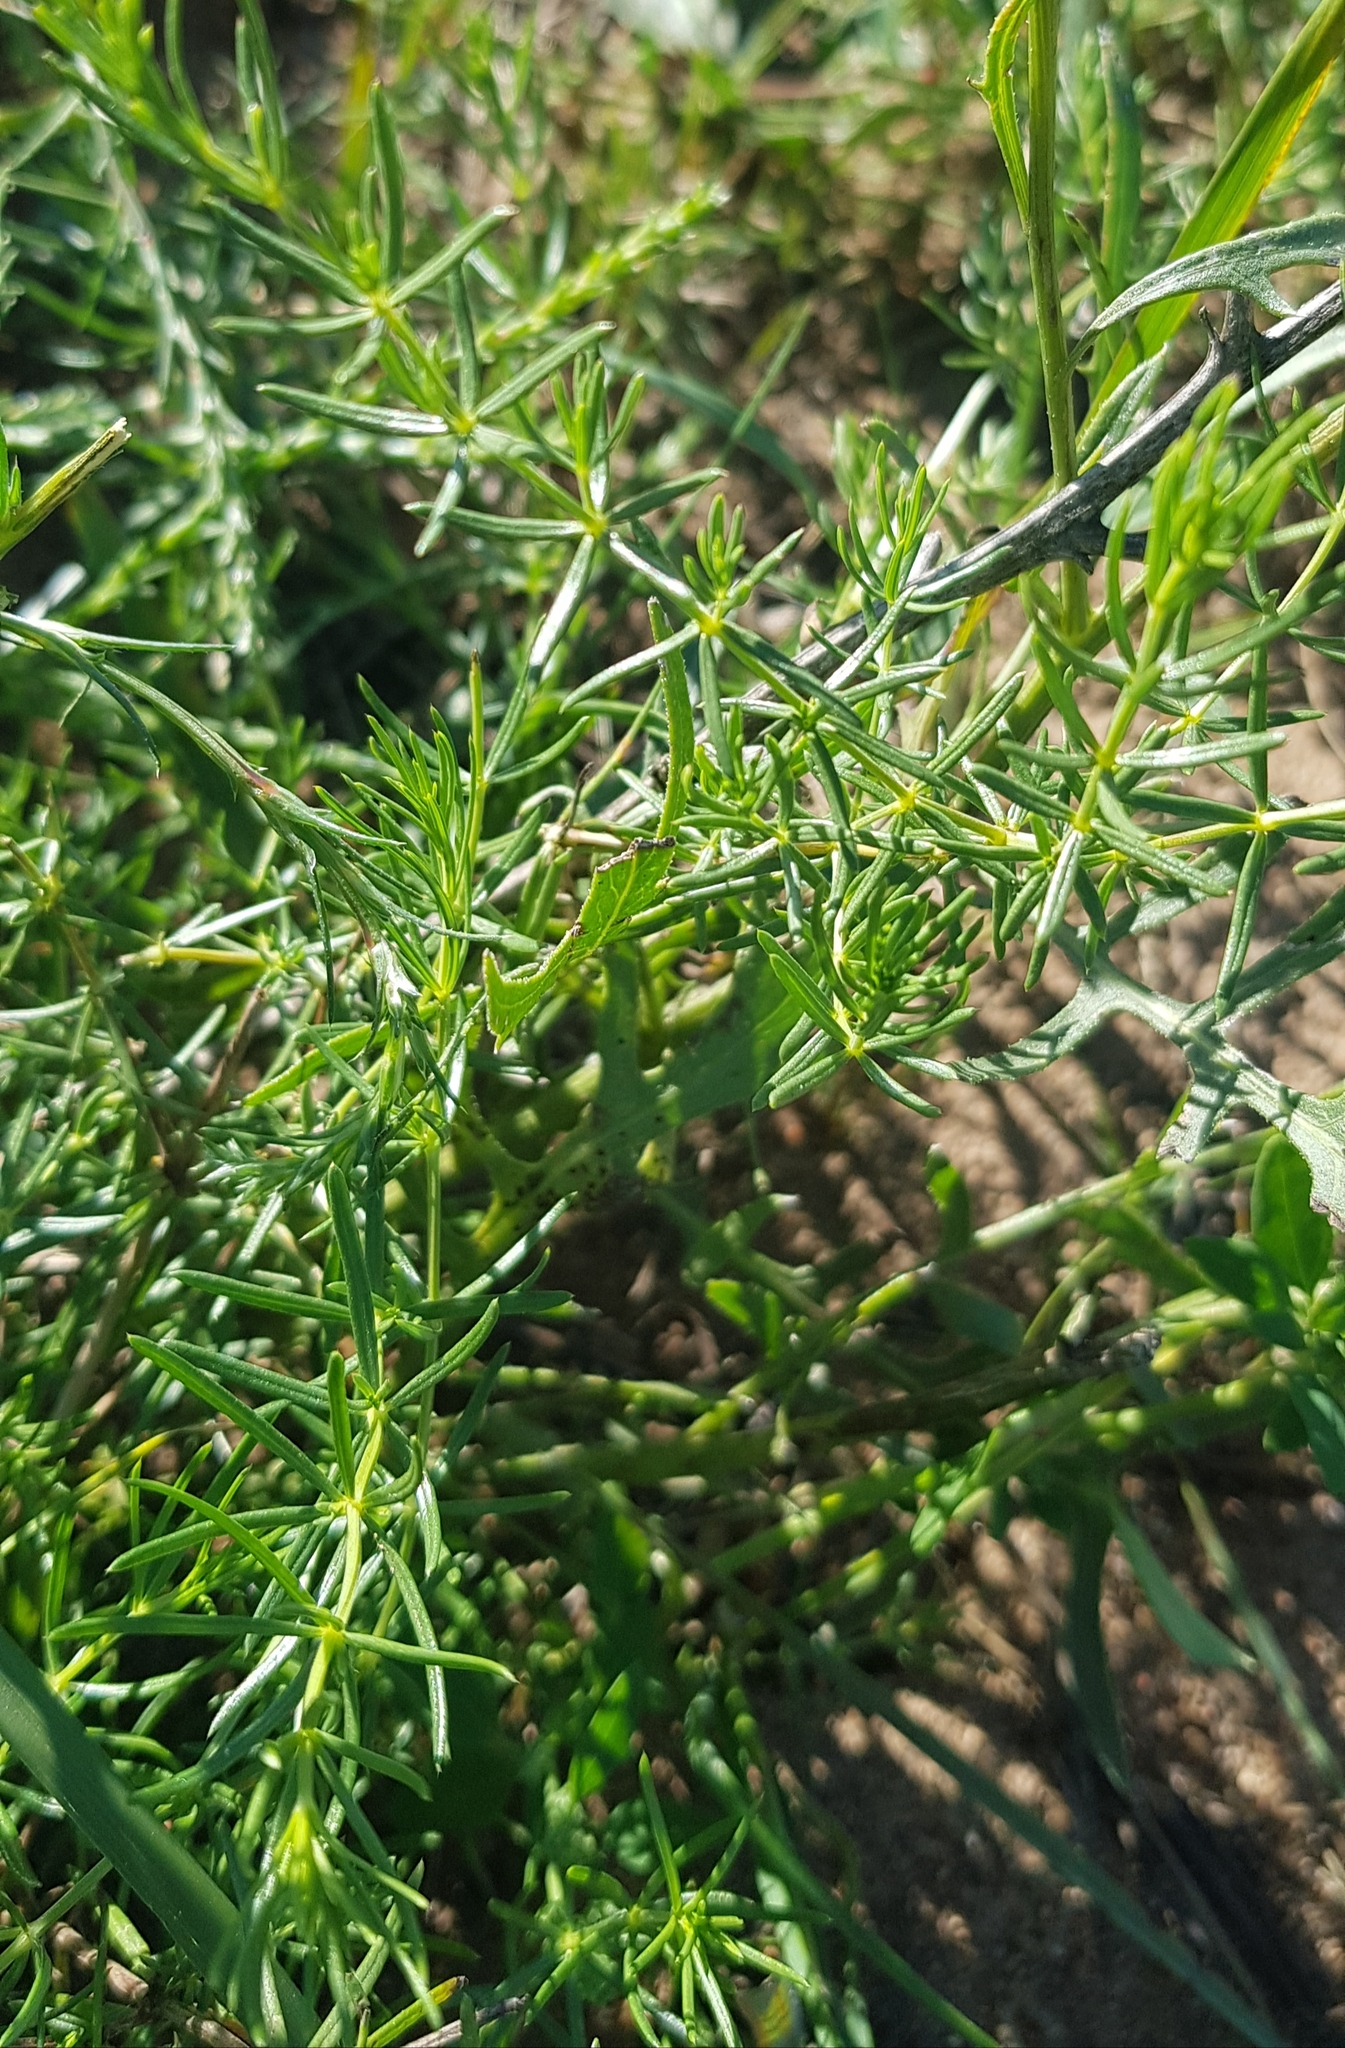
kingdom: Plantae
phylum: Tracheophyta
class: Magnoliopsida
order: Gentianales
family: Rubiaceae
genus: Galium
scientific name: Galium boreale
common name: Northern bedstraw
